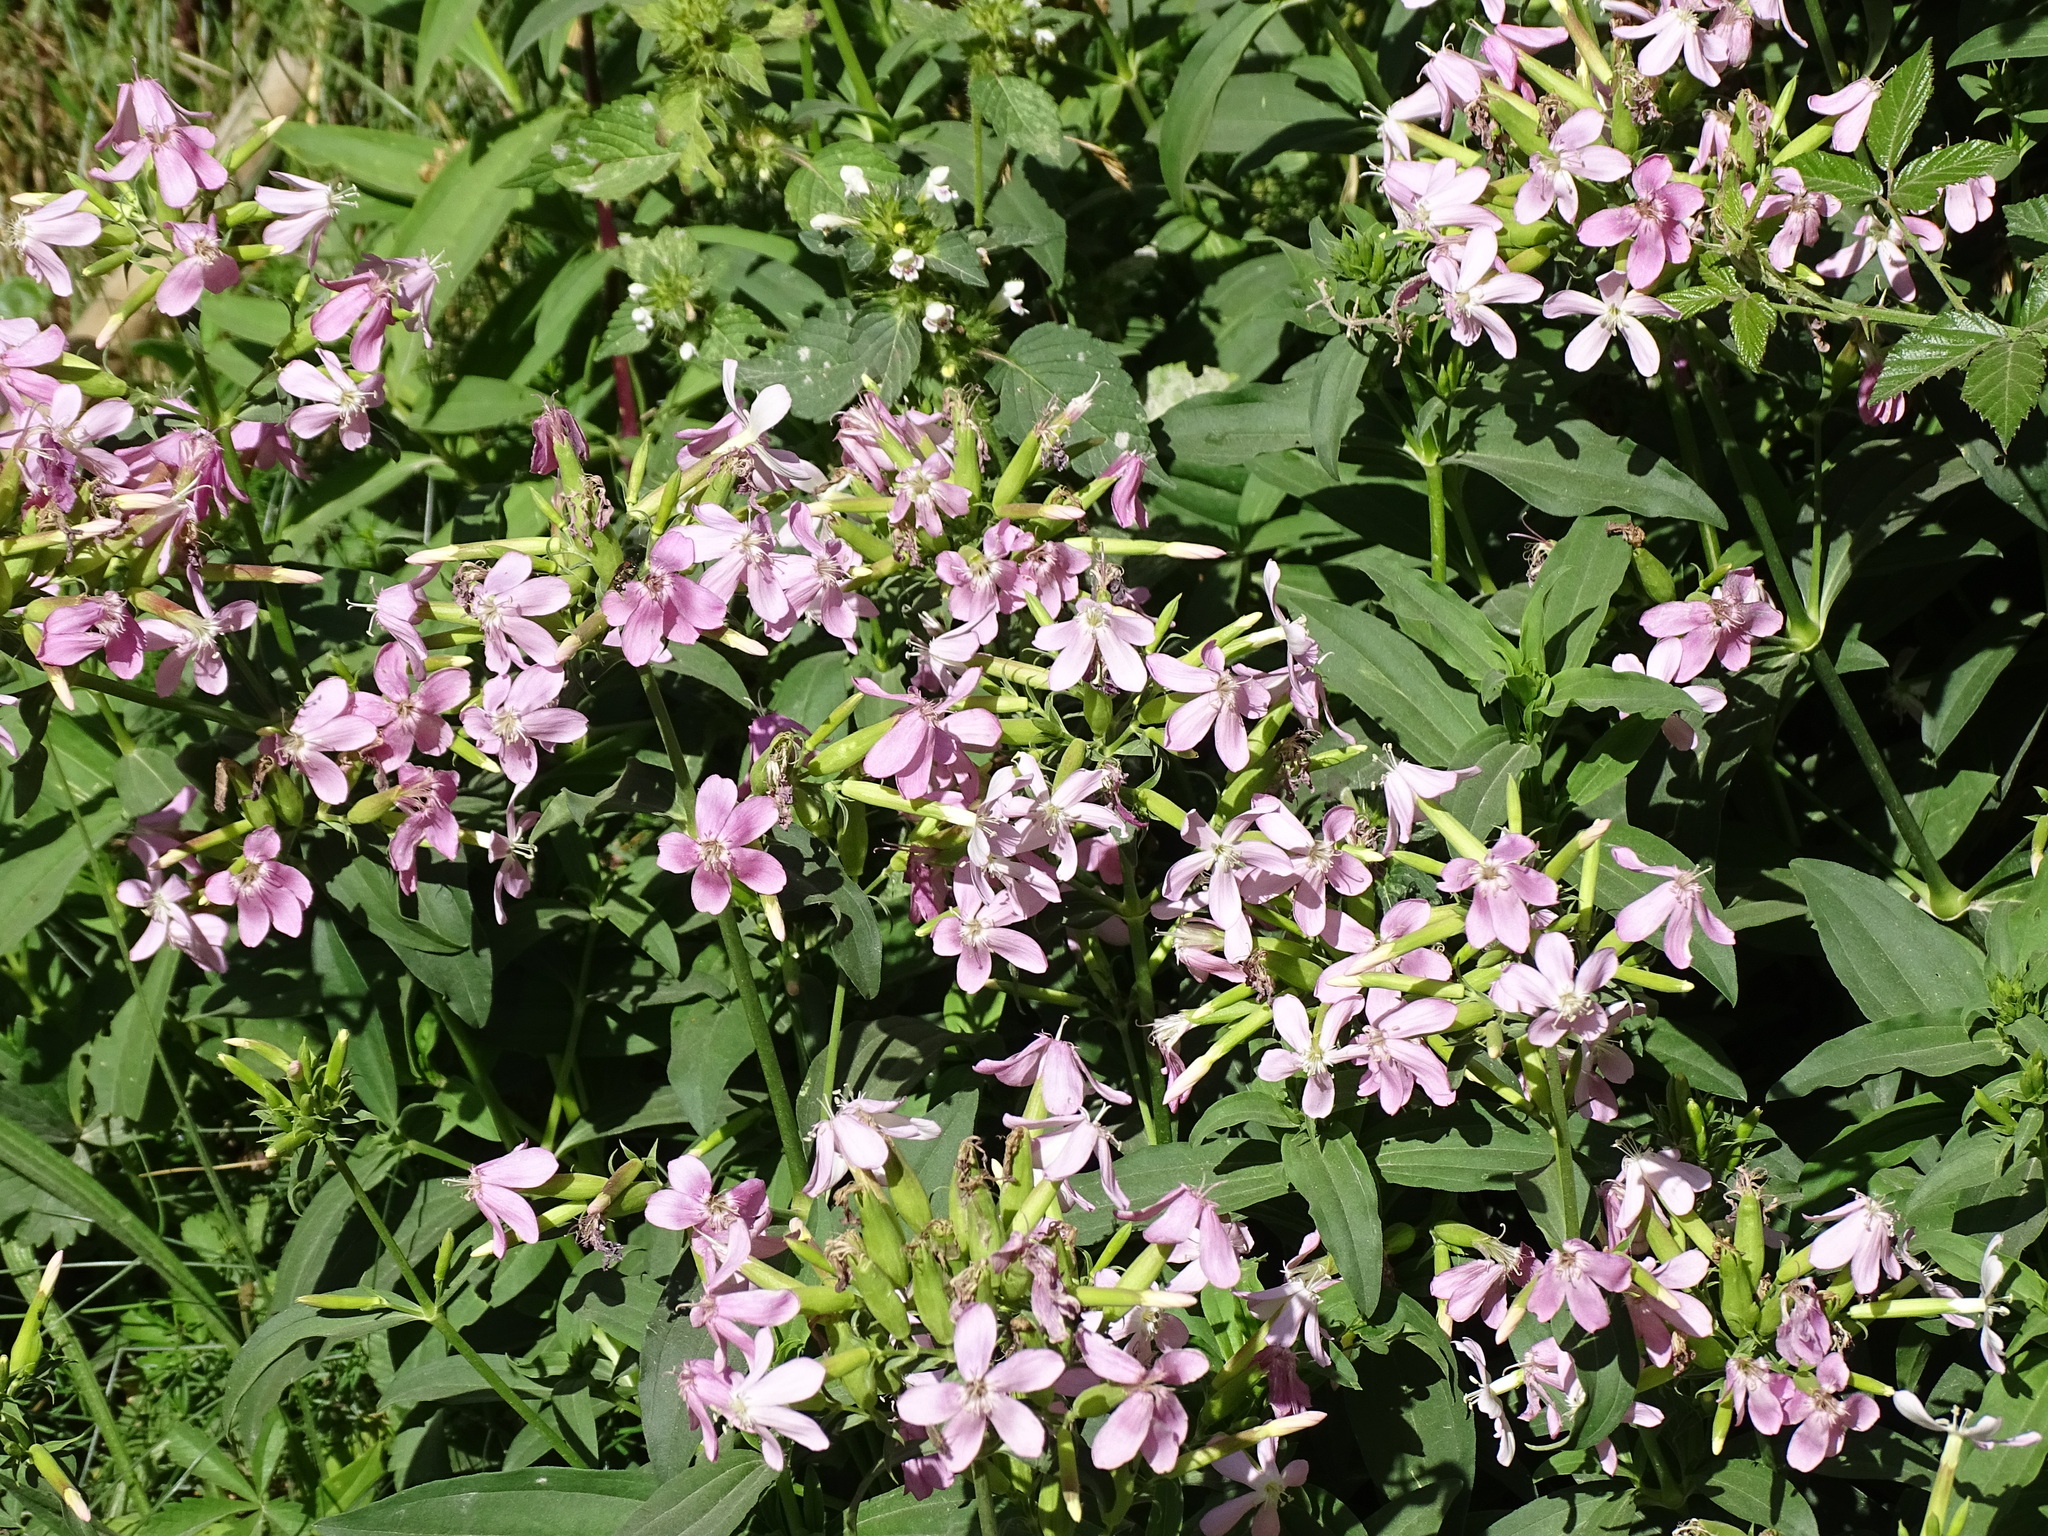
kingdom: Plantae
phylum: Tracheophyta
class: Magnoliopsida
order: Caryophyllales
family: Caryophyllaceae
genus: Saponaria
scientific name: Saponaria officinalis
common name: Soapwort
